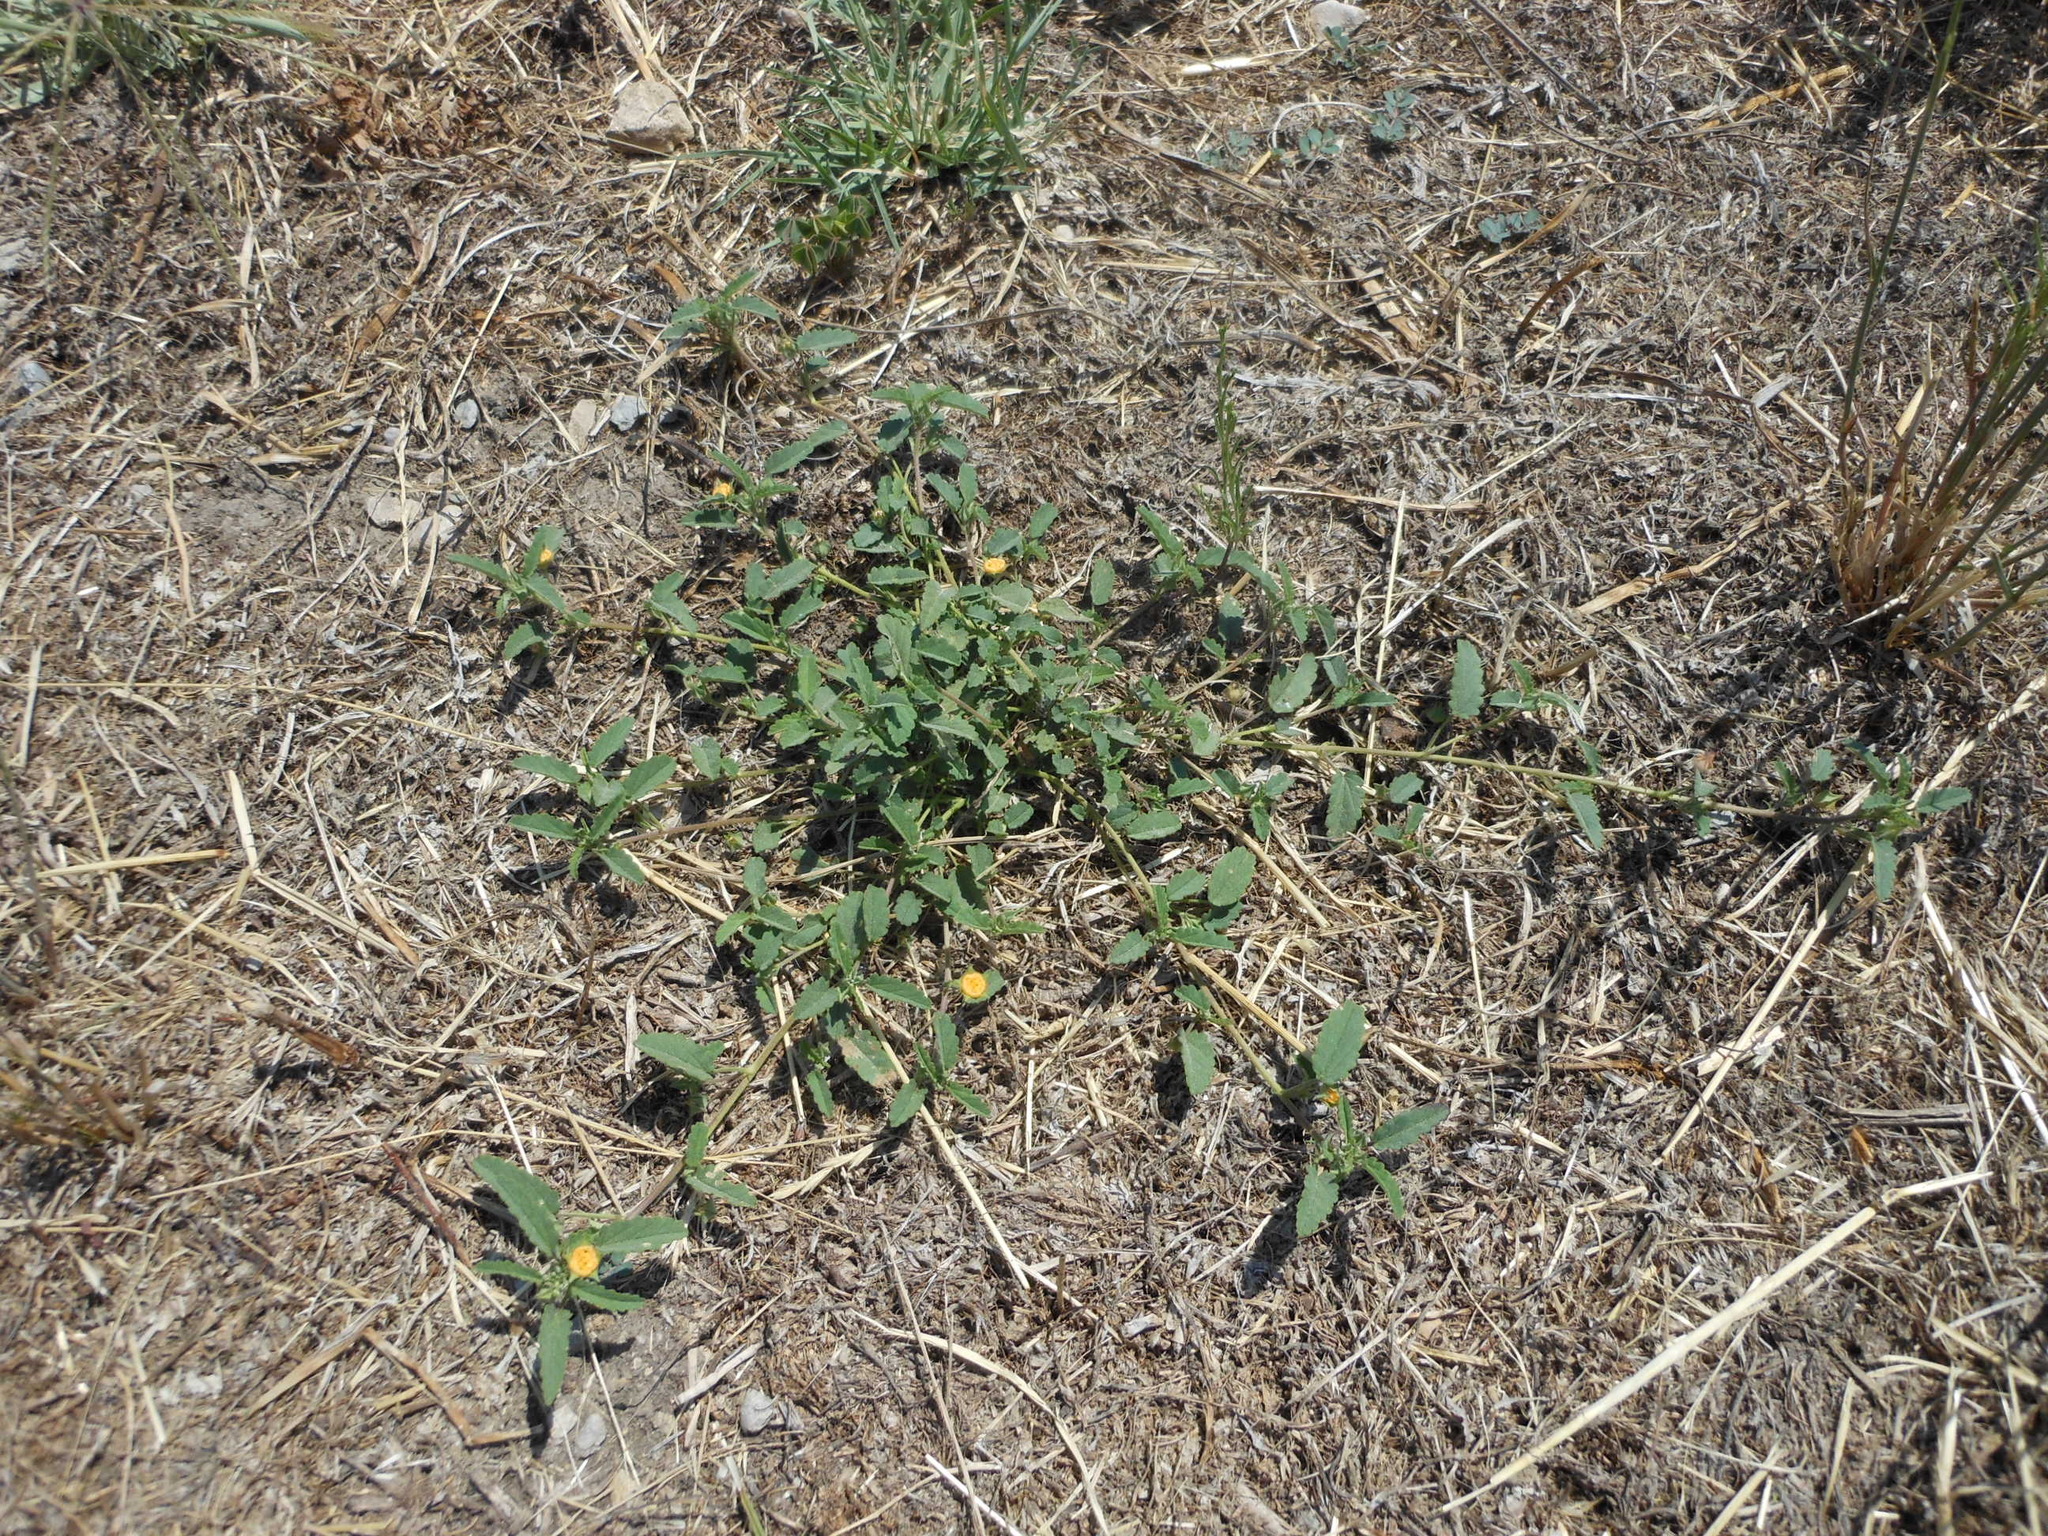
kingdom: Plantae
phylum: Tracheophyta
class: Magnoliopsida
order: Malvales
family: Malvaceae
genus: Sida
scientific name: Sida abutilifolia
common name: Spreading fanpetals
